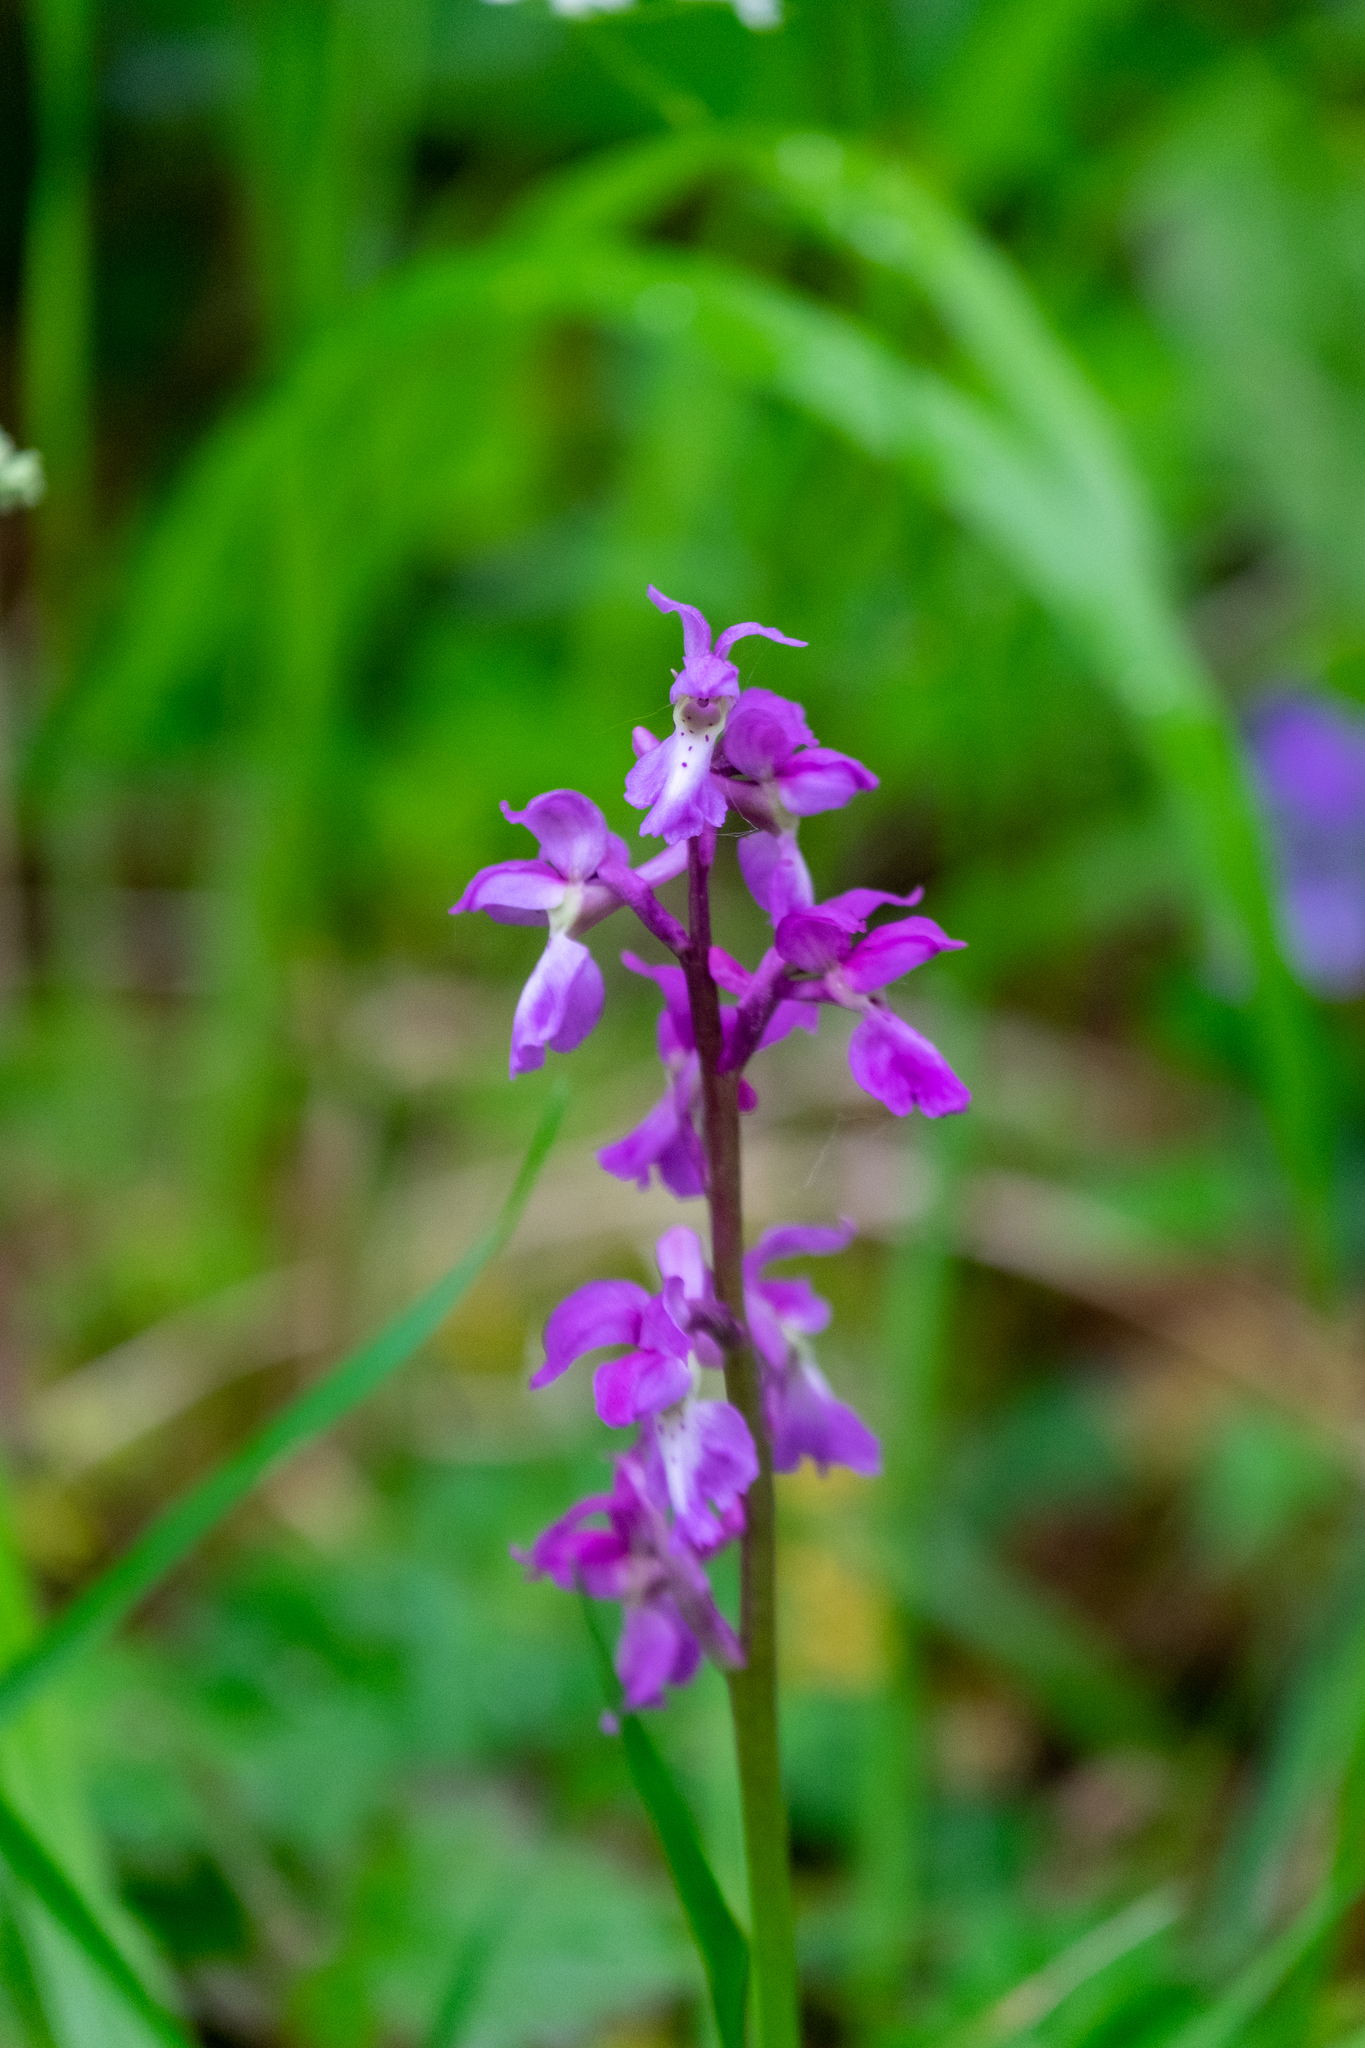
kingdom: Plantae
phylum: Tracheophyta
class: Liliopsida
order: Asparagales
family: Orchidaceae
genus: Orchis
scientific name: Orchis mascula
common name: Early-purple orchid
